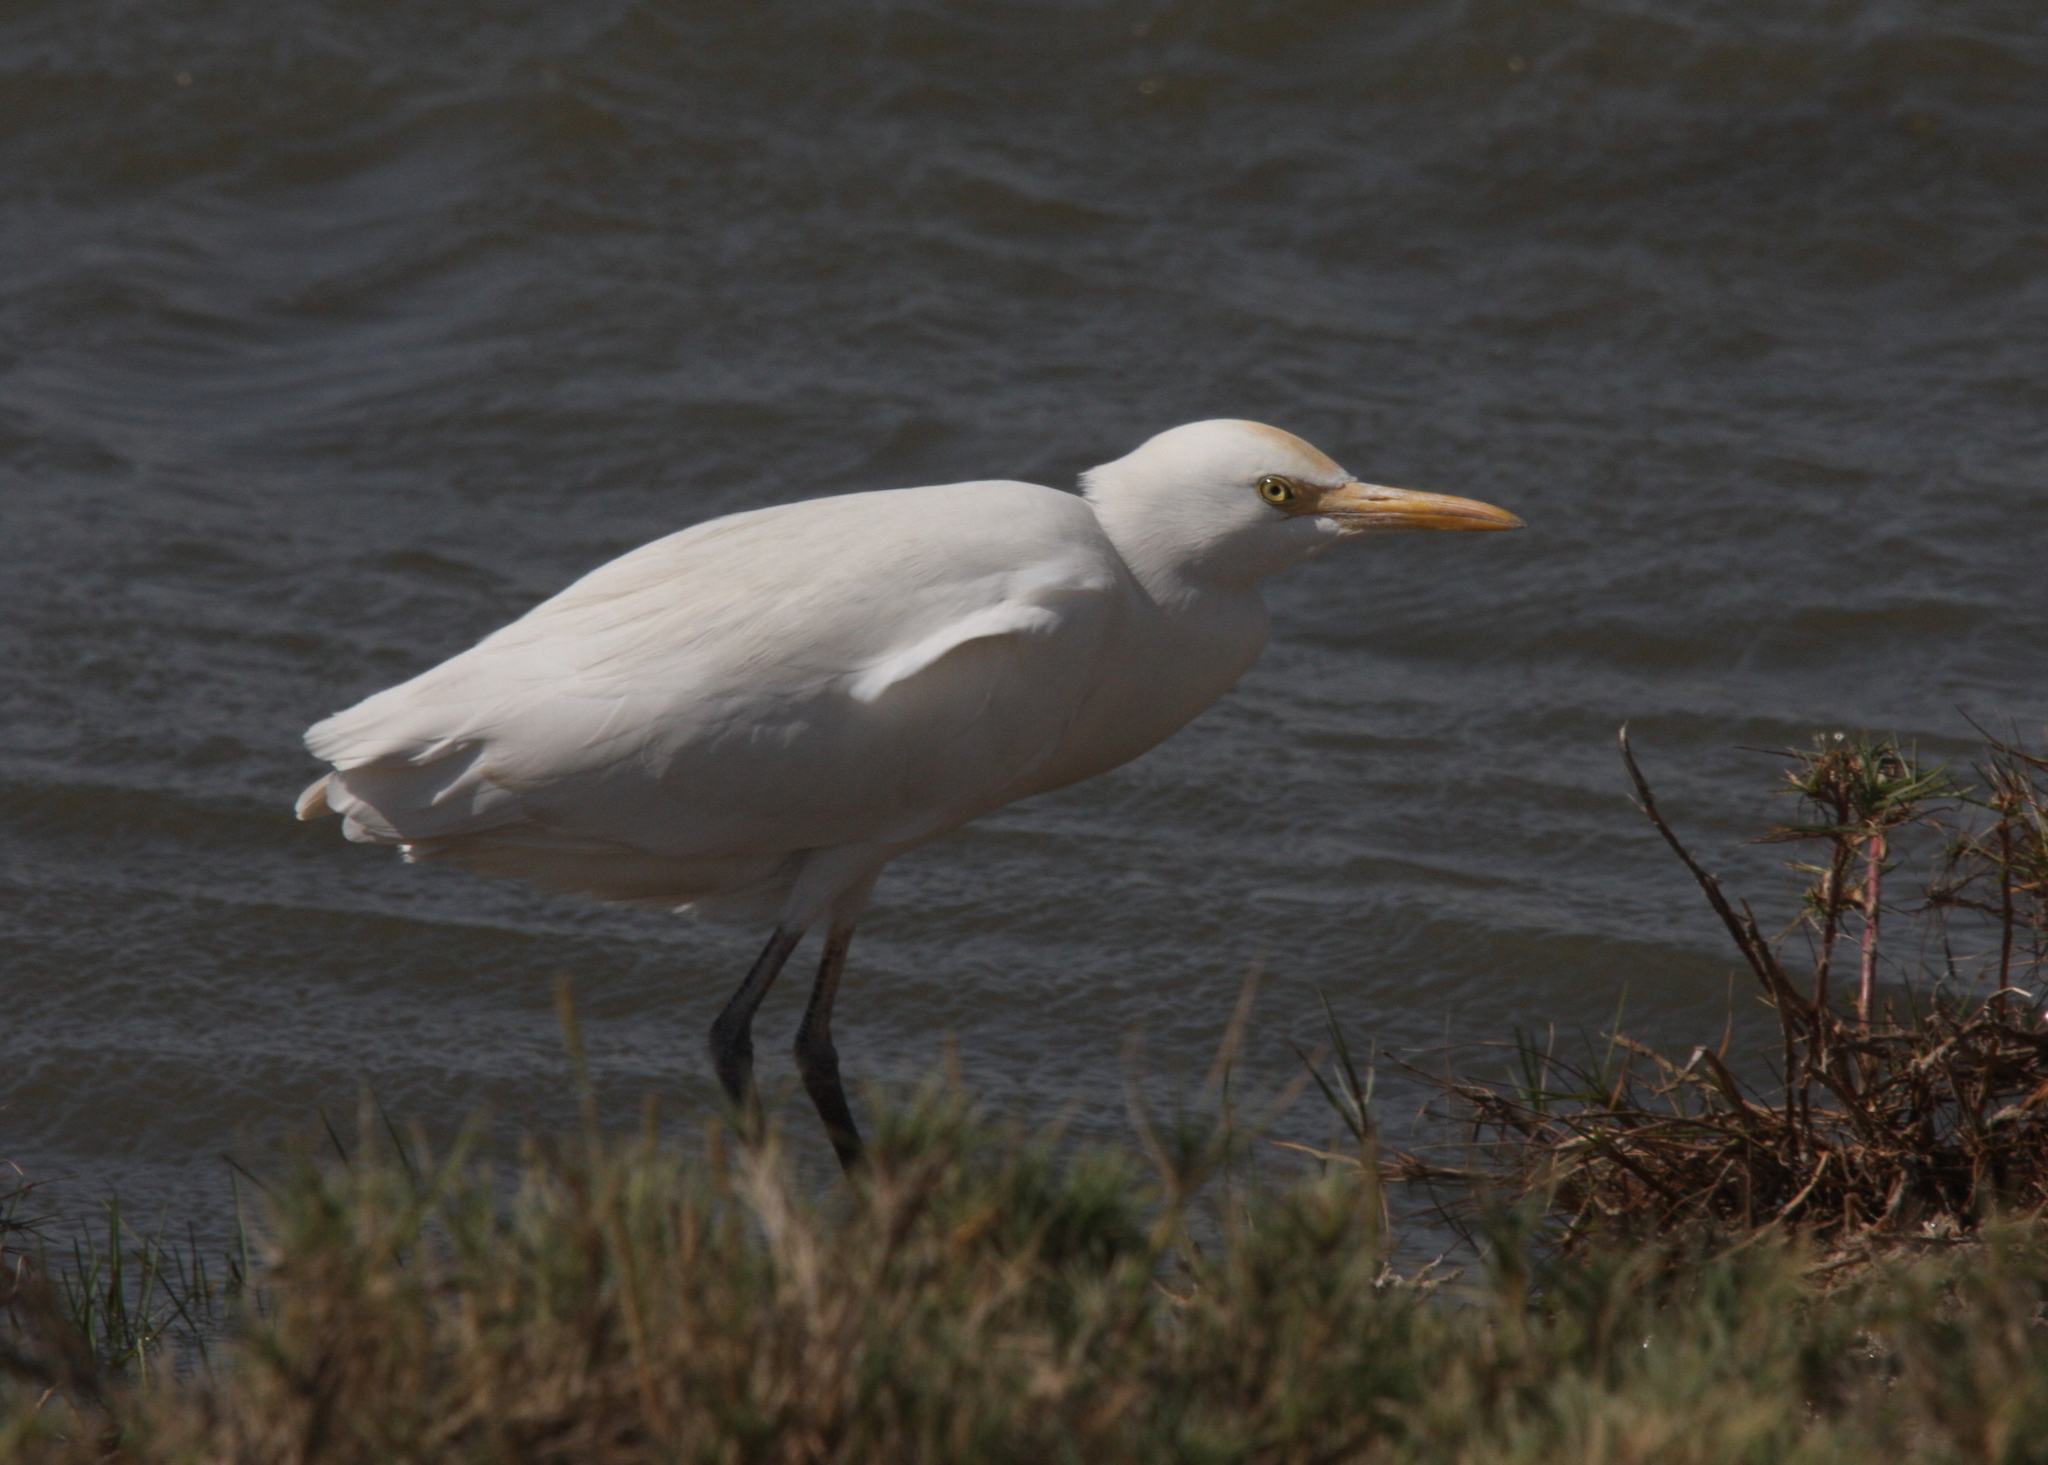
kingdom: Animalia
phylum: Chordata
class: Aves
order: Pelecaniformes
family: Ardeidae
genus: Bubulcus
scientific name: Bubulcus ibis
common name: Cattle egret
